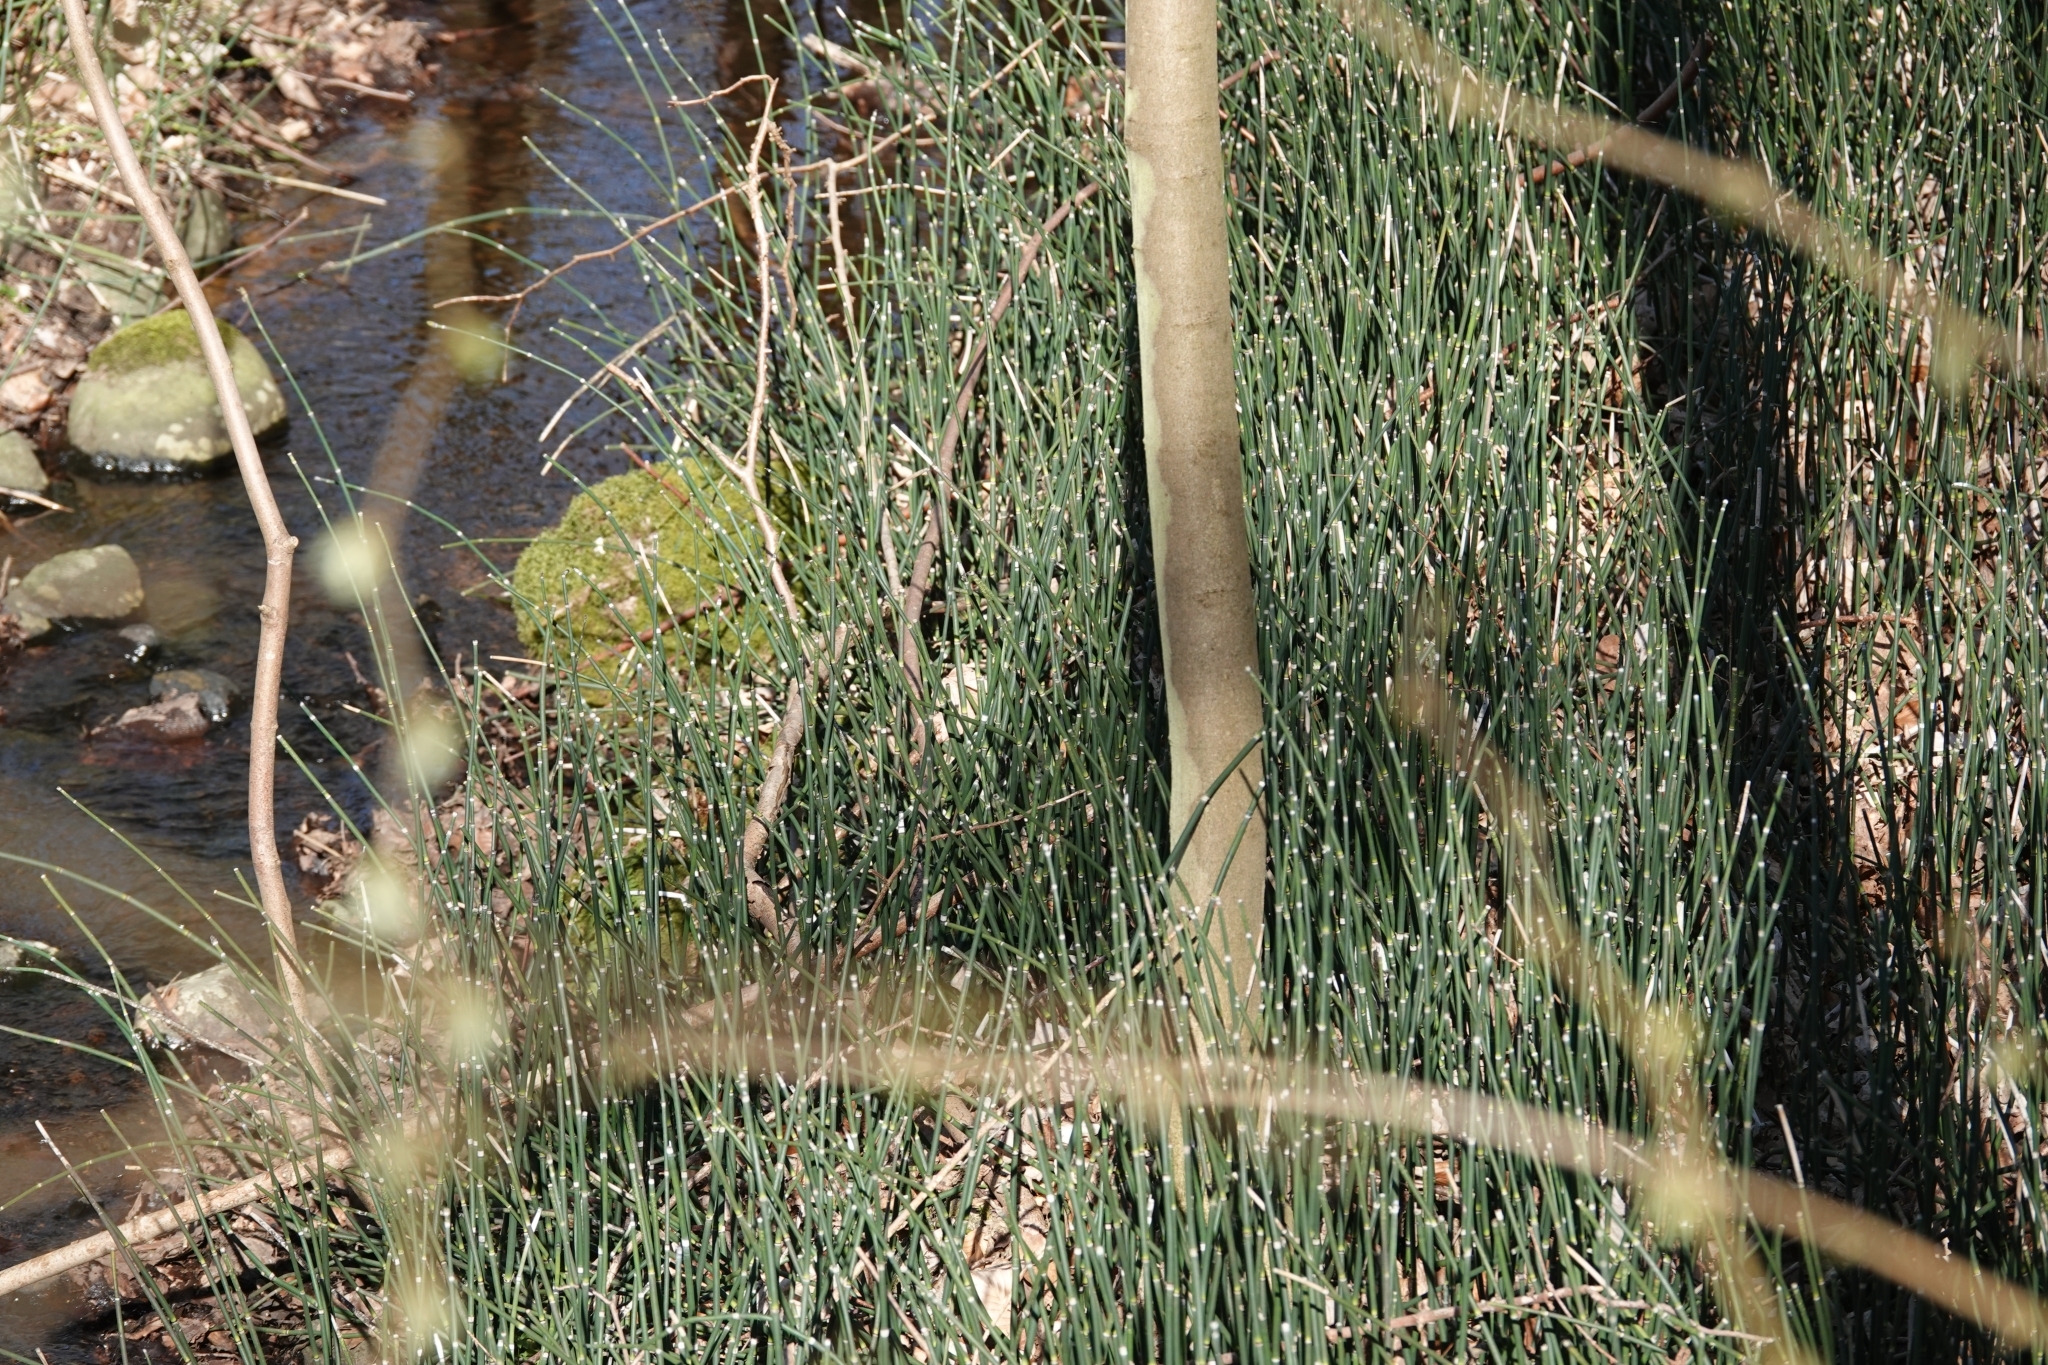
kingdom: Plantae
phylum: Tracheophyta
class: Polypodiopsida
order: Equisetales
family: Equisetaceae
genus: Equisetum
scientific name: Equisetum hyemale
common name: Rough horsetail
